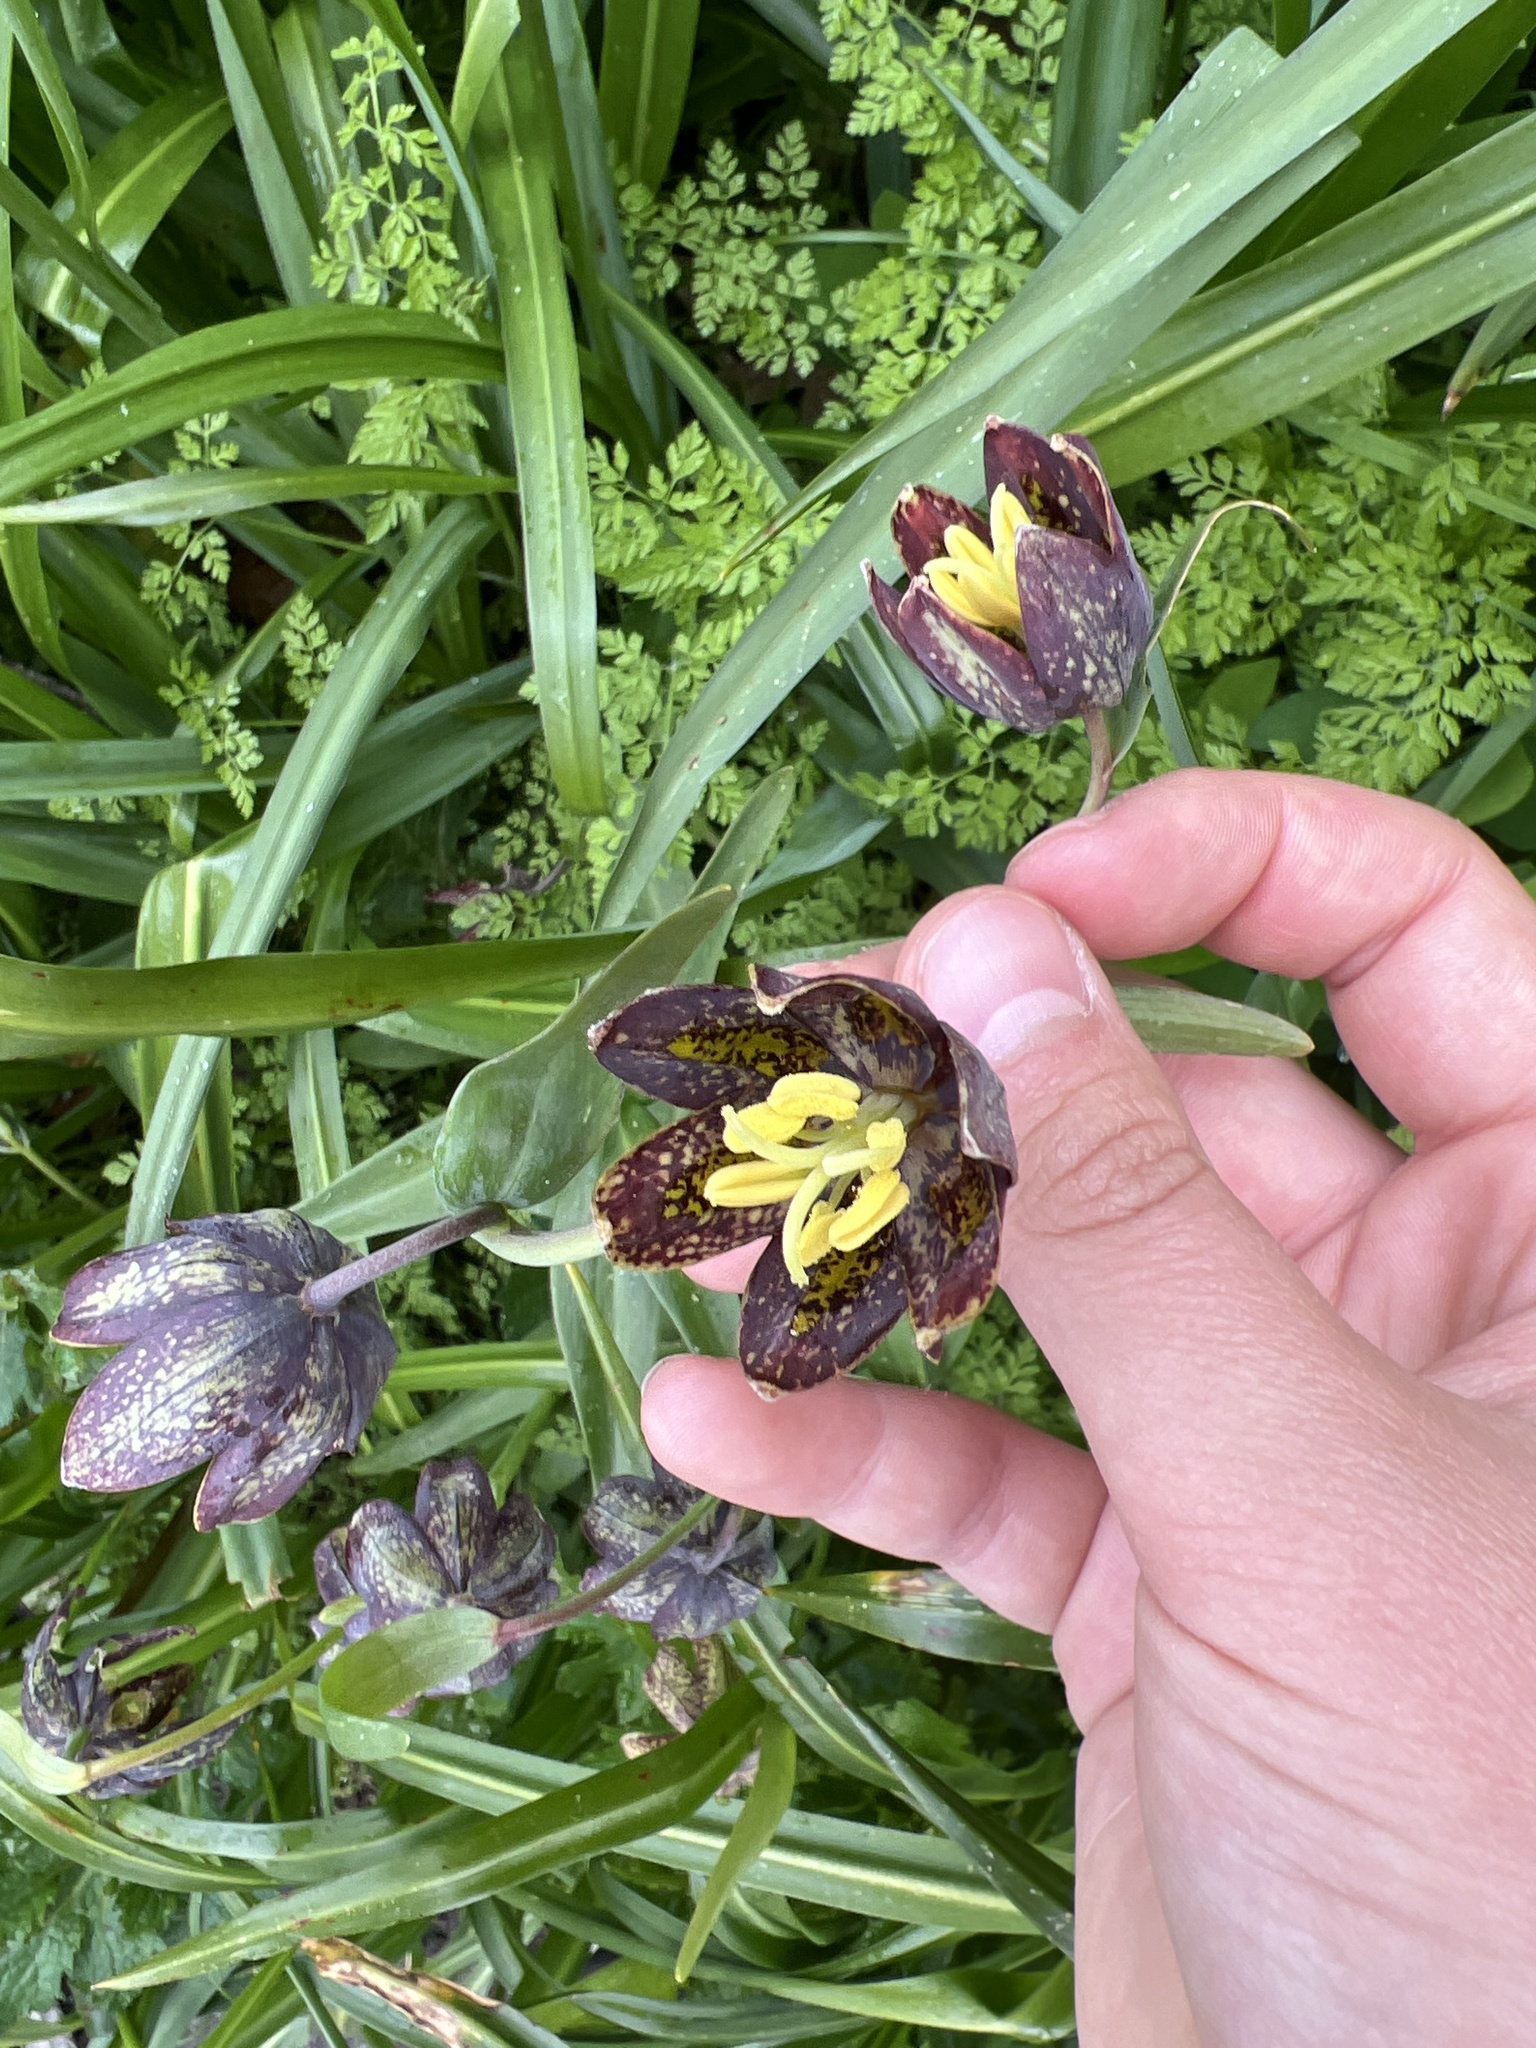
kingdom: Plantae
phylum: Tracheophyta
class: Liliopsida
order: Liliales
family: Liliaceae
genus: Fritillaria
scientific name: Fritillaria affinis
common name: Ojai fritillary
